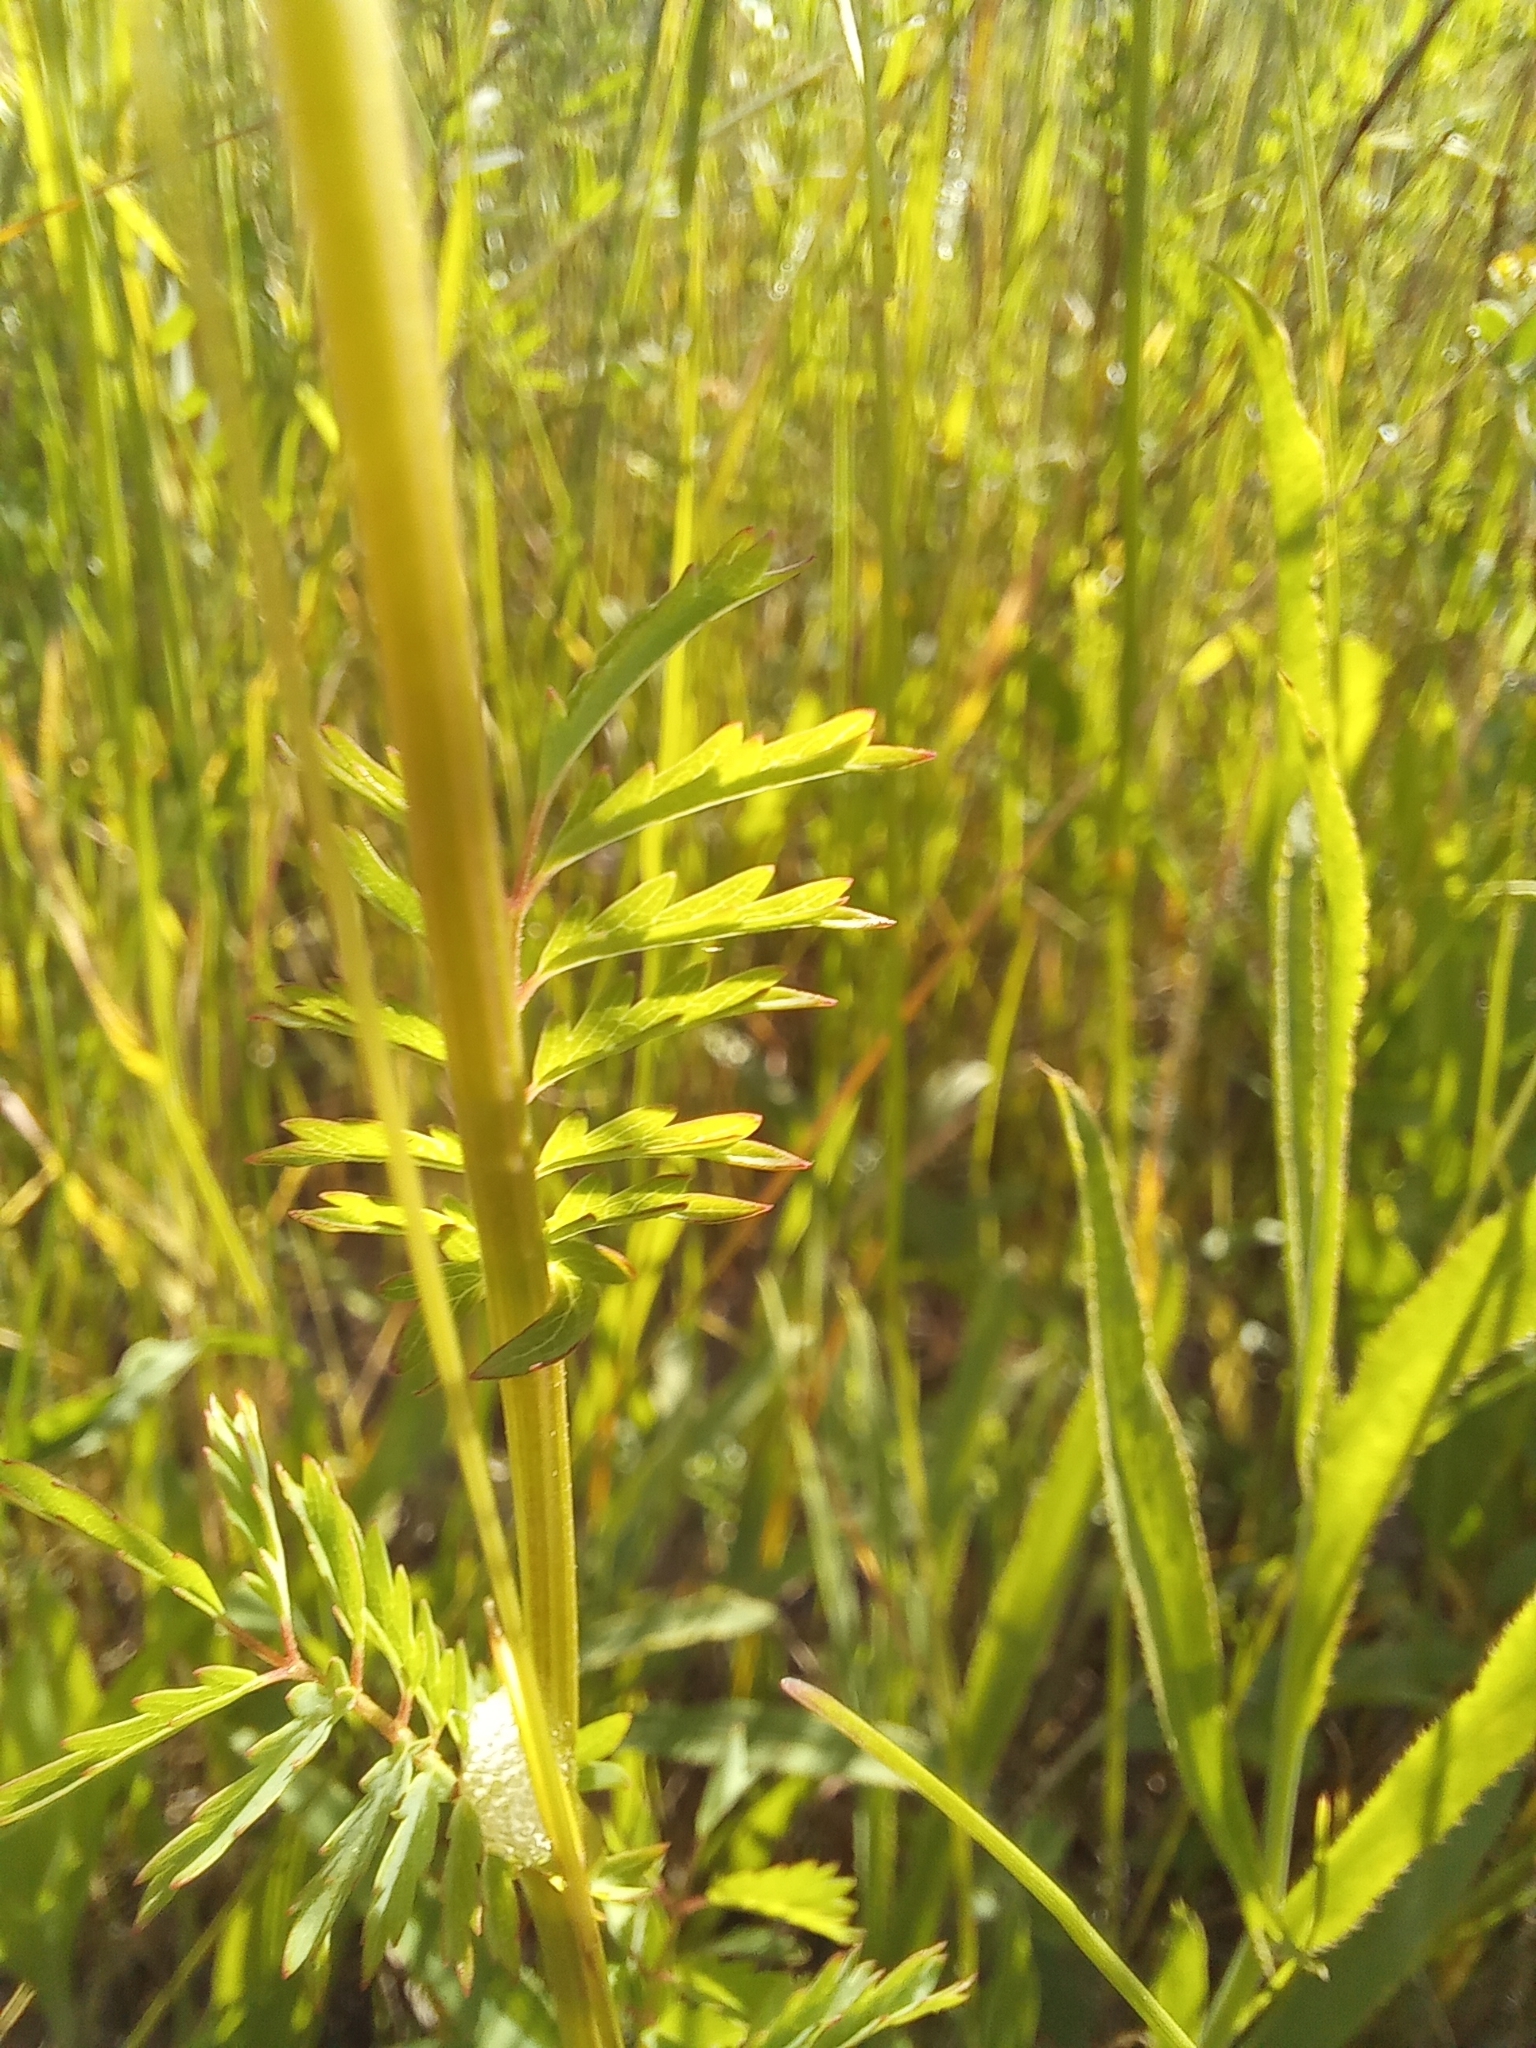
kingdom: Plantae
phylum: Tracheophyta
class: Magnoliopsida
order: Rosales
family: Rosaceae
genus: Poterium
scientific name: Poterium sanguisorba
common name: Salad burnet
